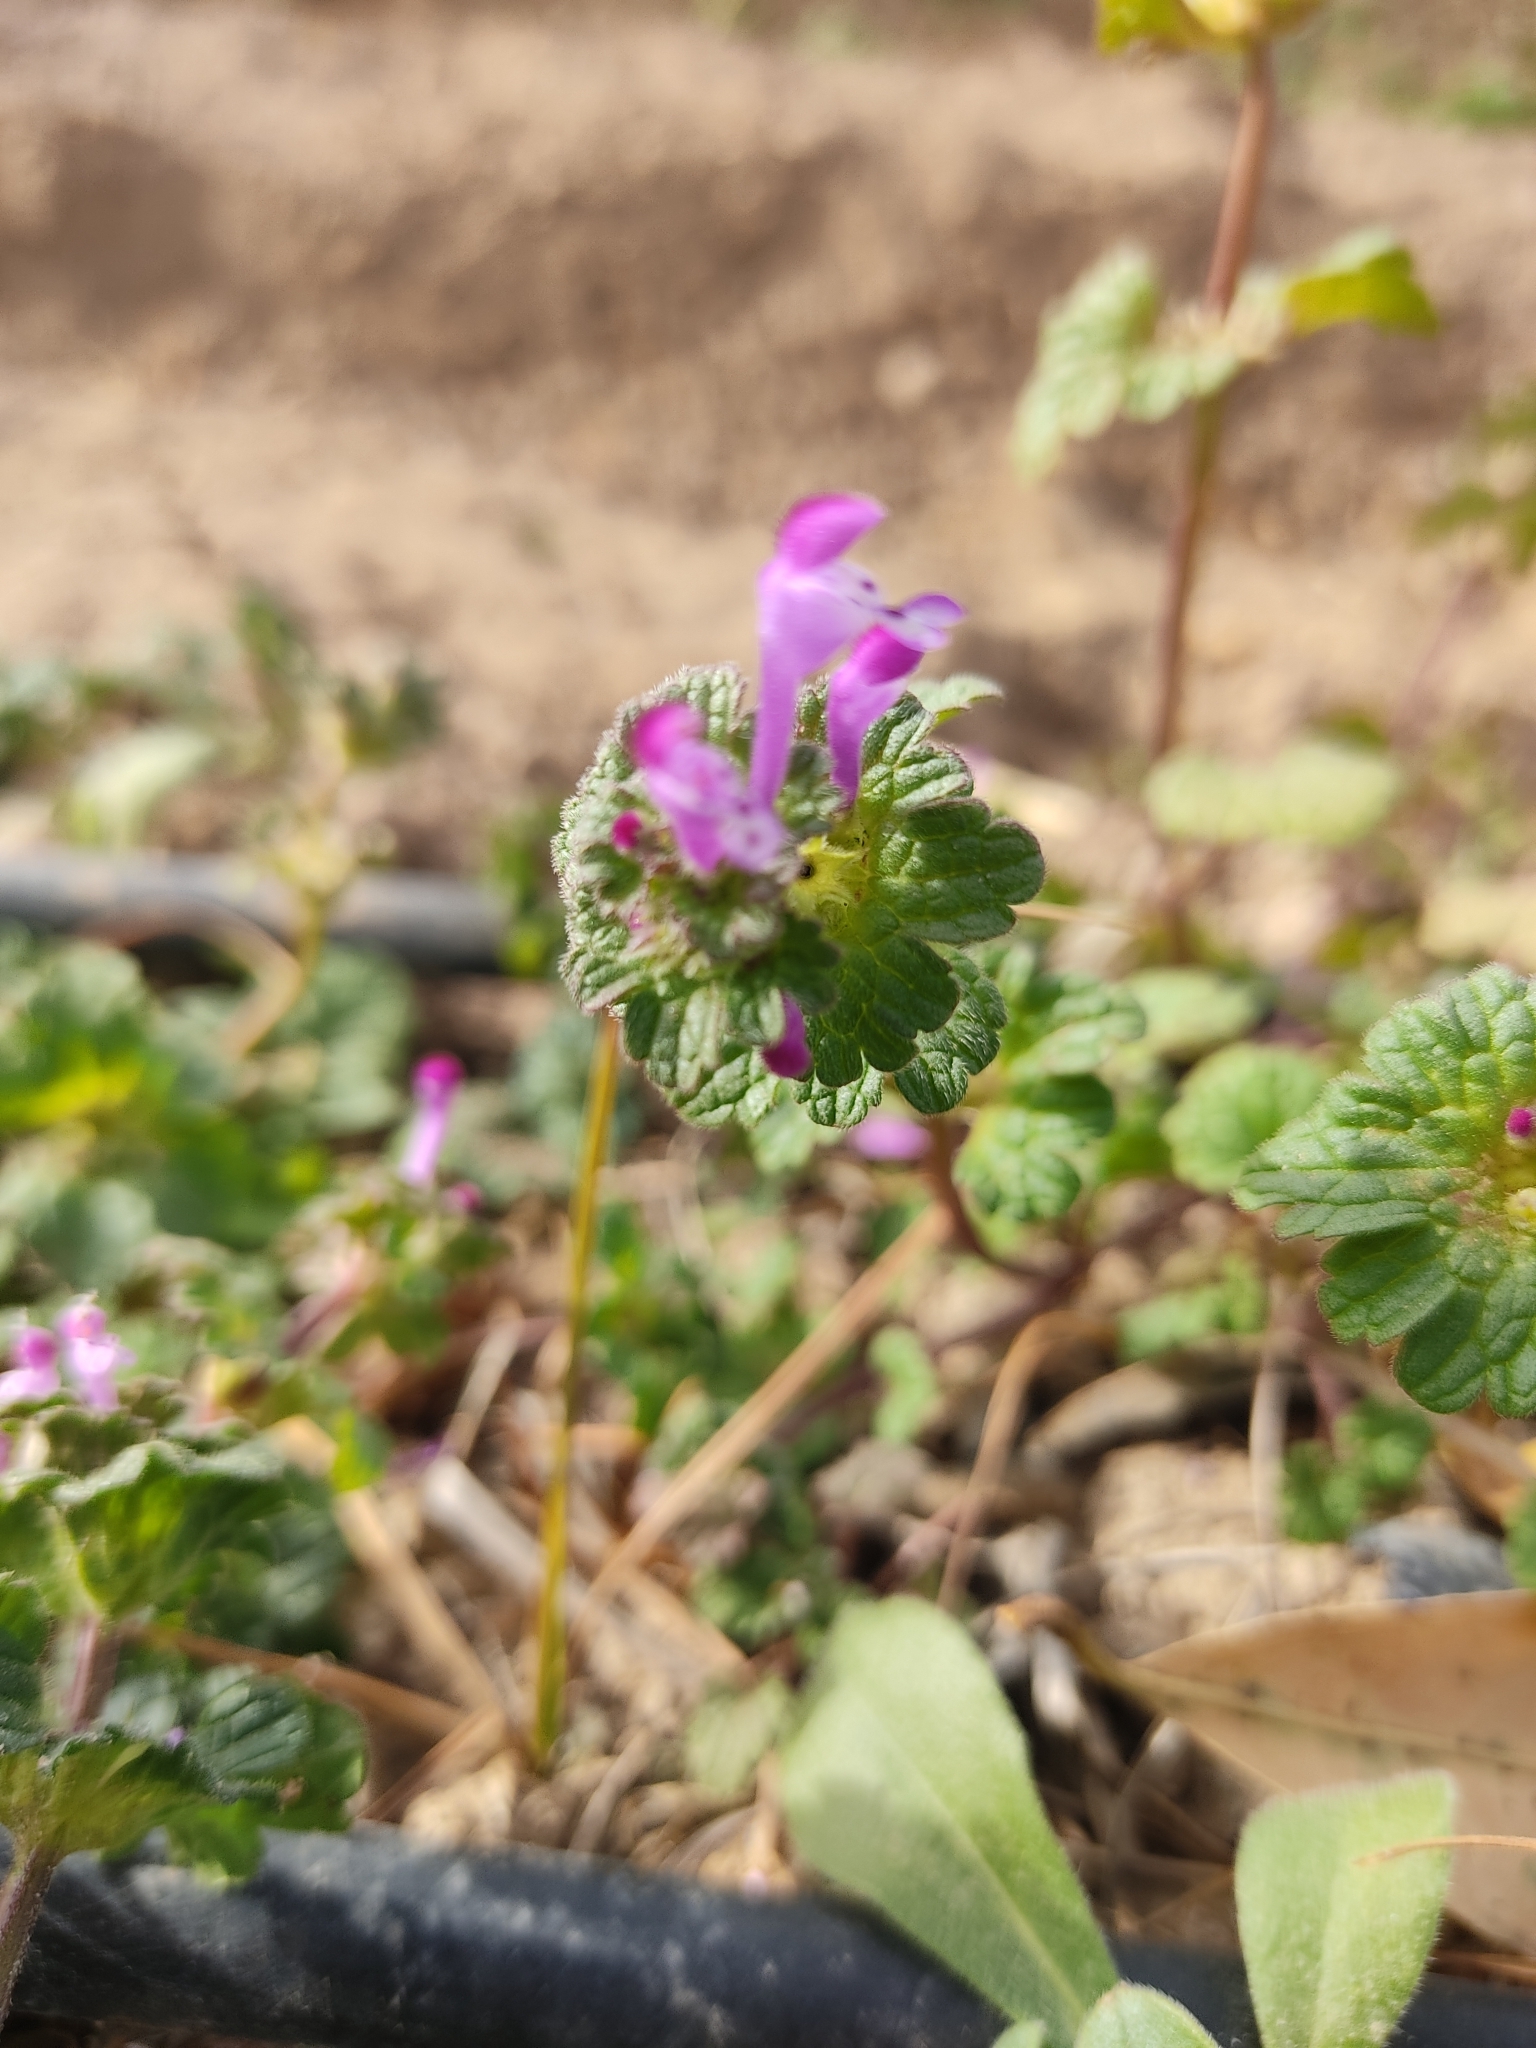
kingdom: Plantae
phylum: Tracheophyta
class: Magnoliopsida
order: Lamiales
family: Lamiaceae
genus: Lamium
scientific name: Lamium amplexicaule
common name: Henbit dead-nettle
